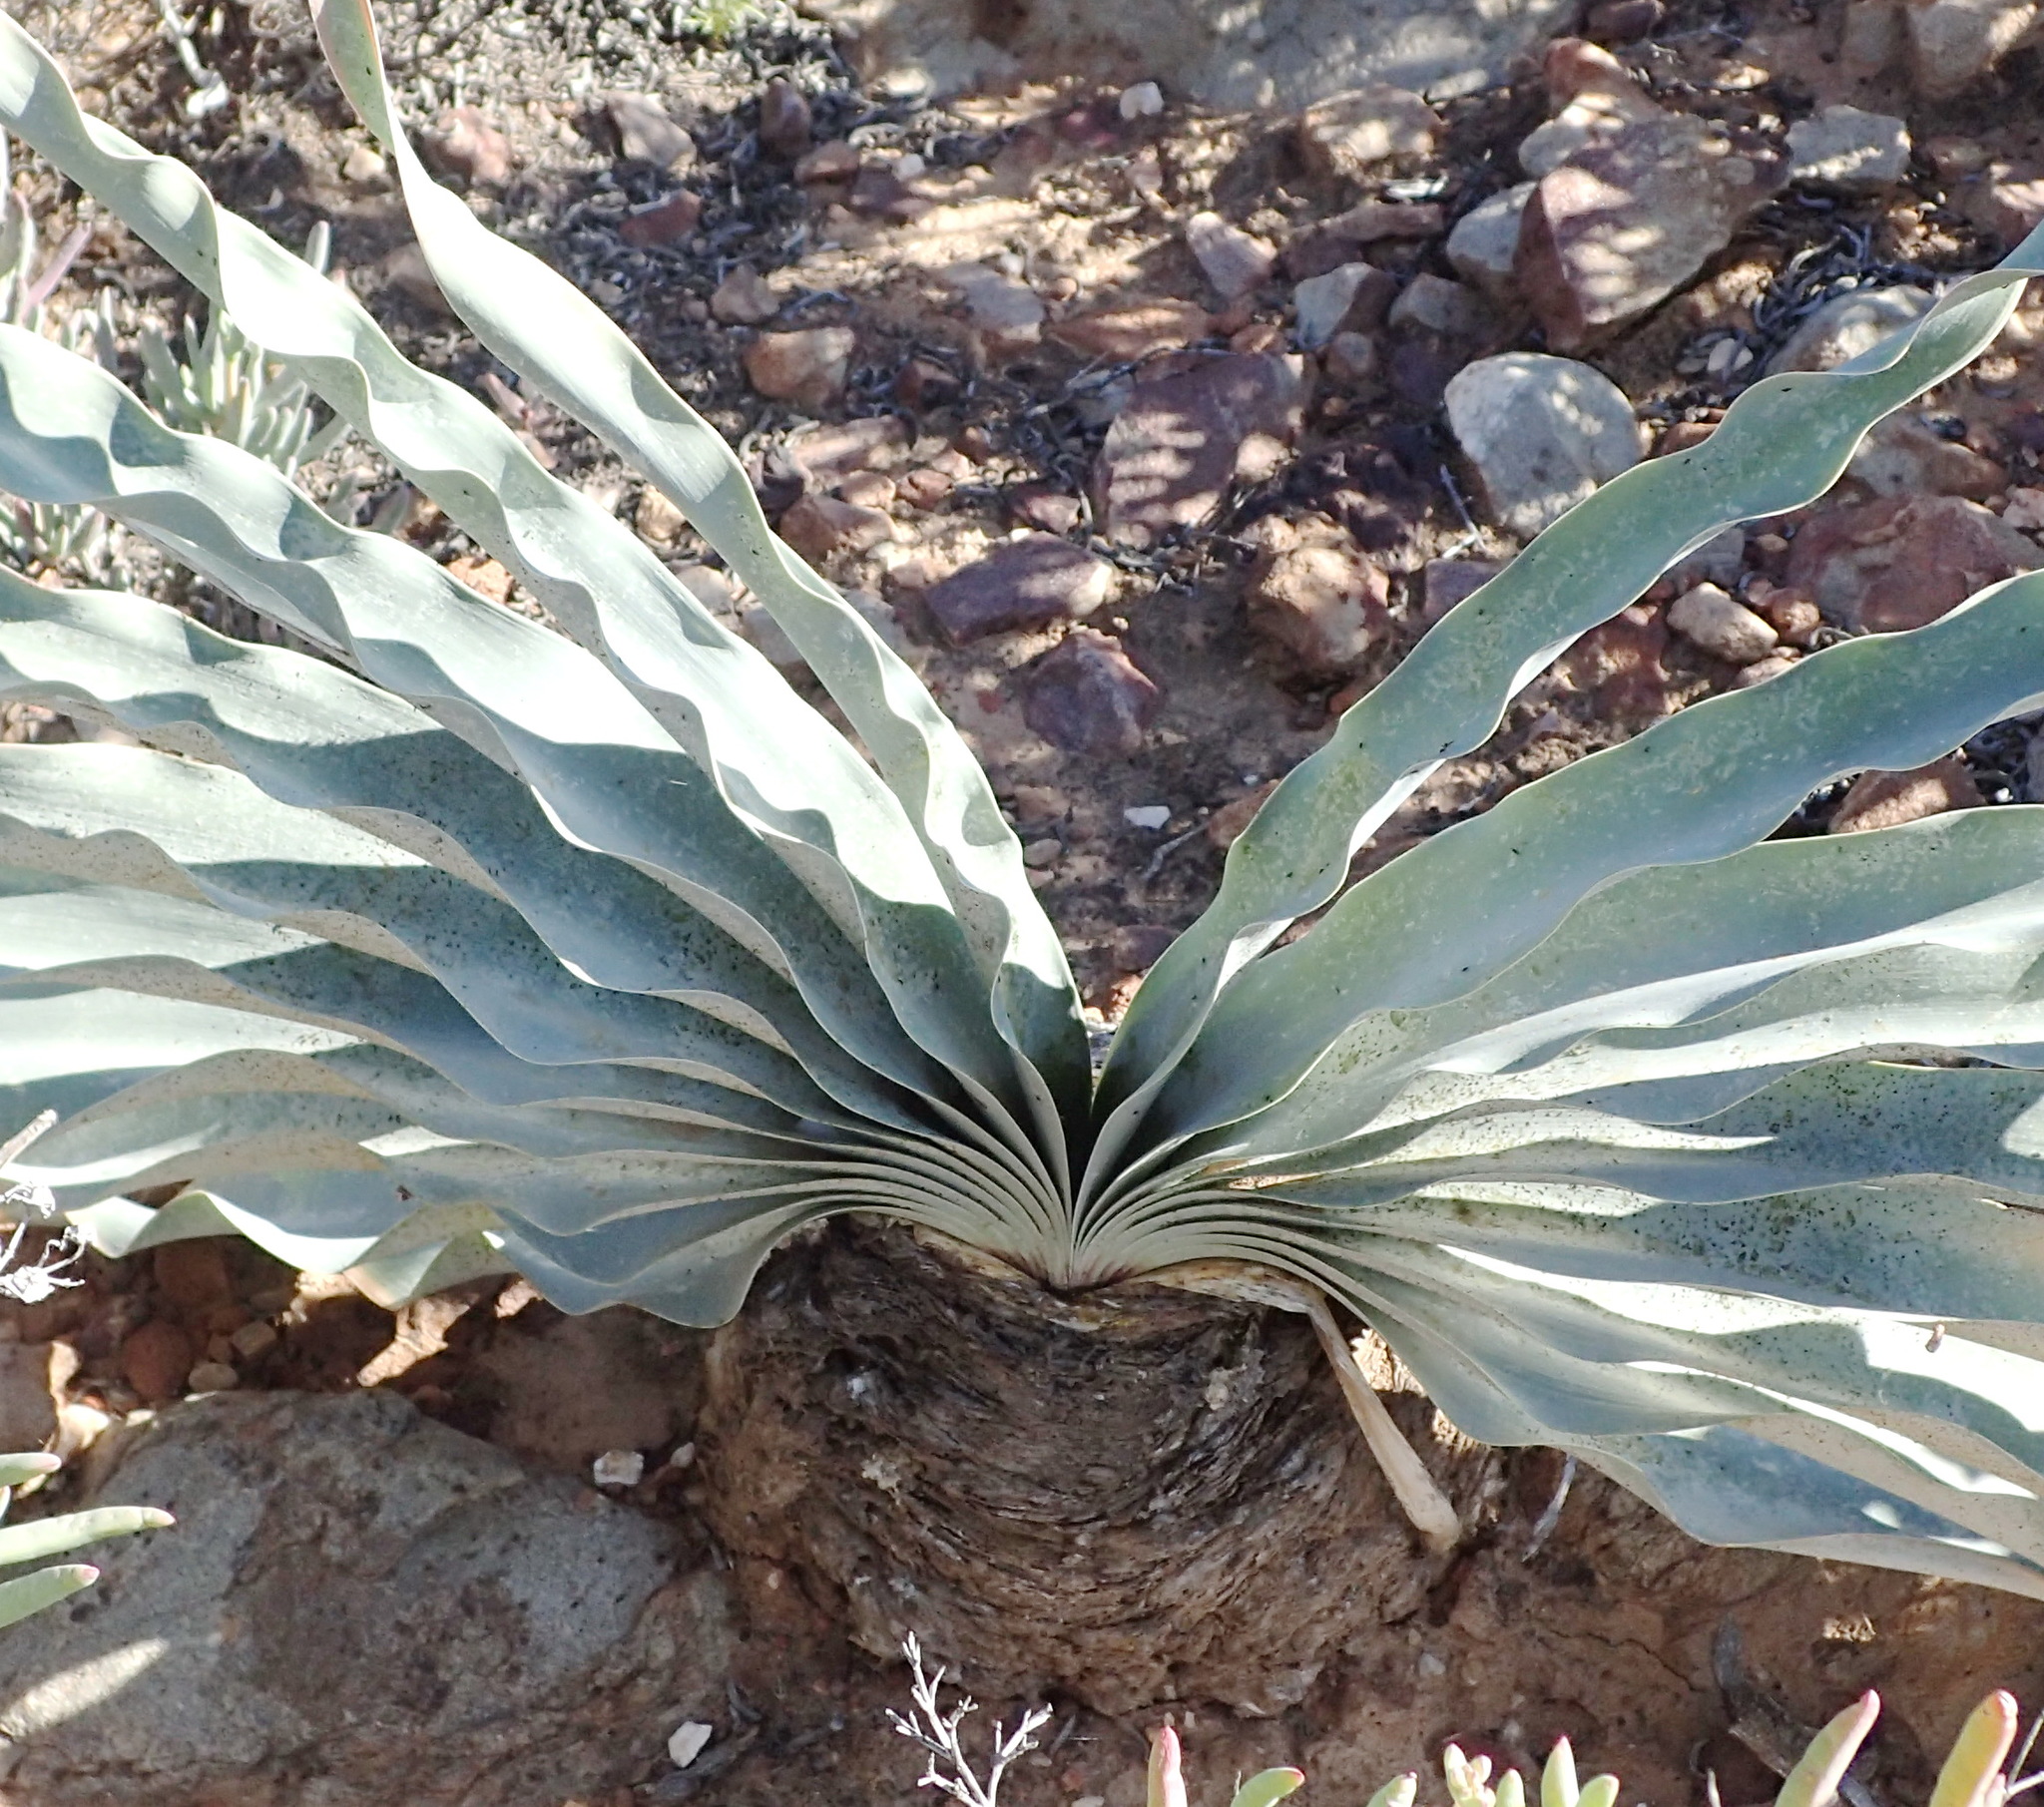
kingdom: Plantae
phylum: Tracheophyta
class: Liliopsida
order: Asparagales
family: Amaryllidaceae
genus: Boophone
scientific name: Boophone disticha
